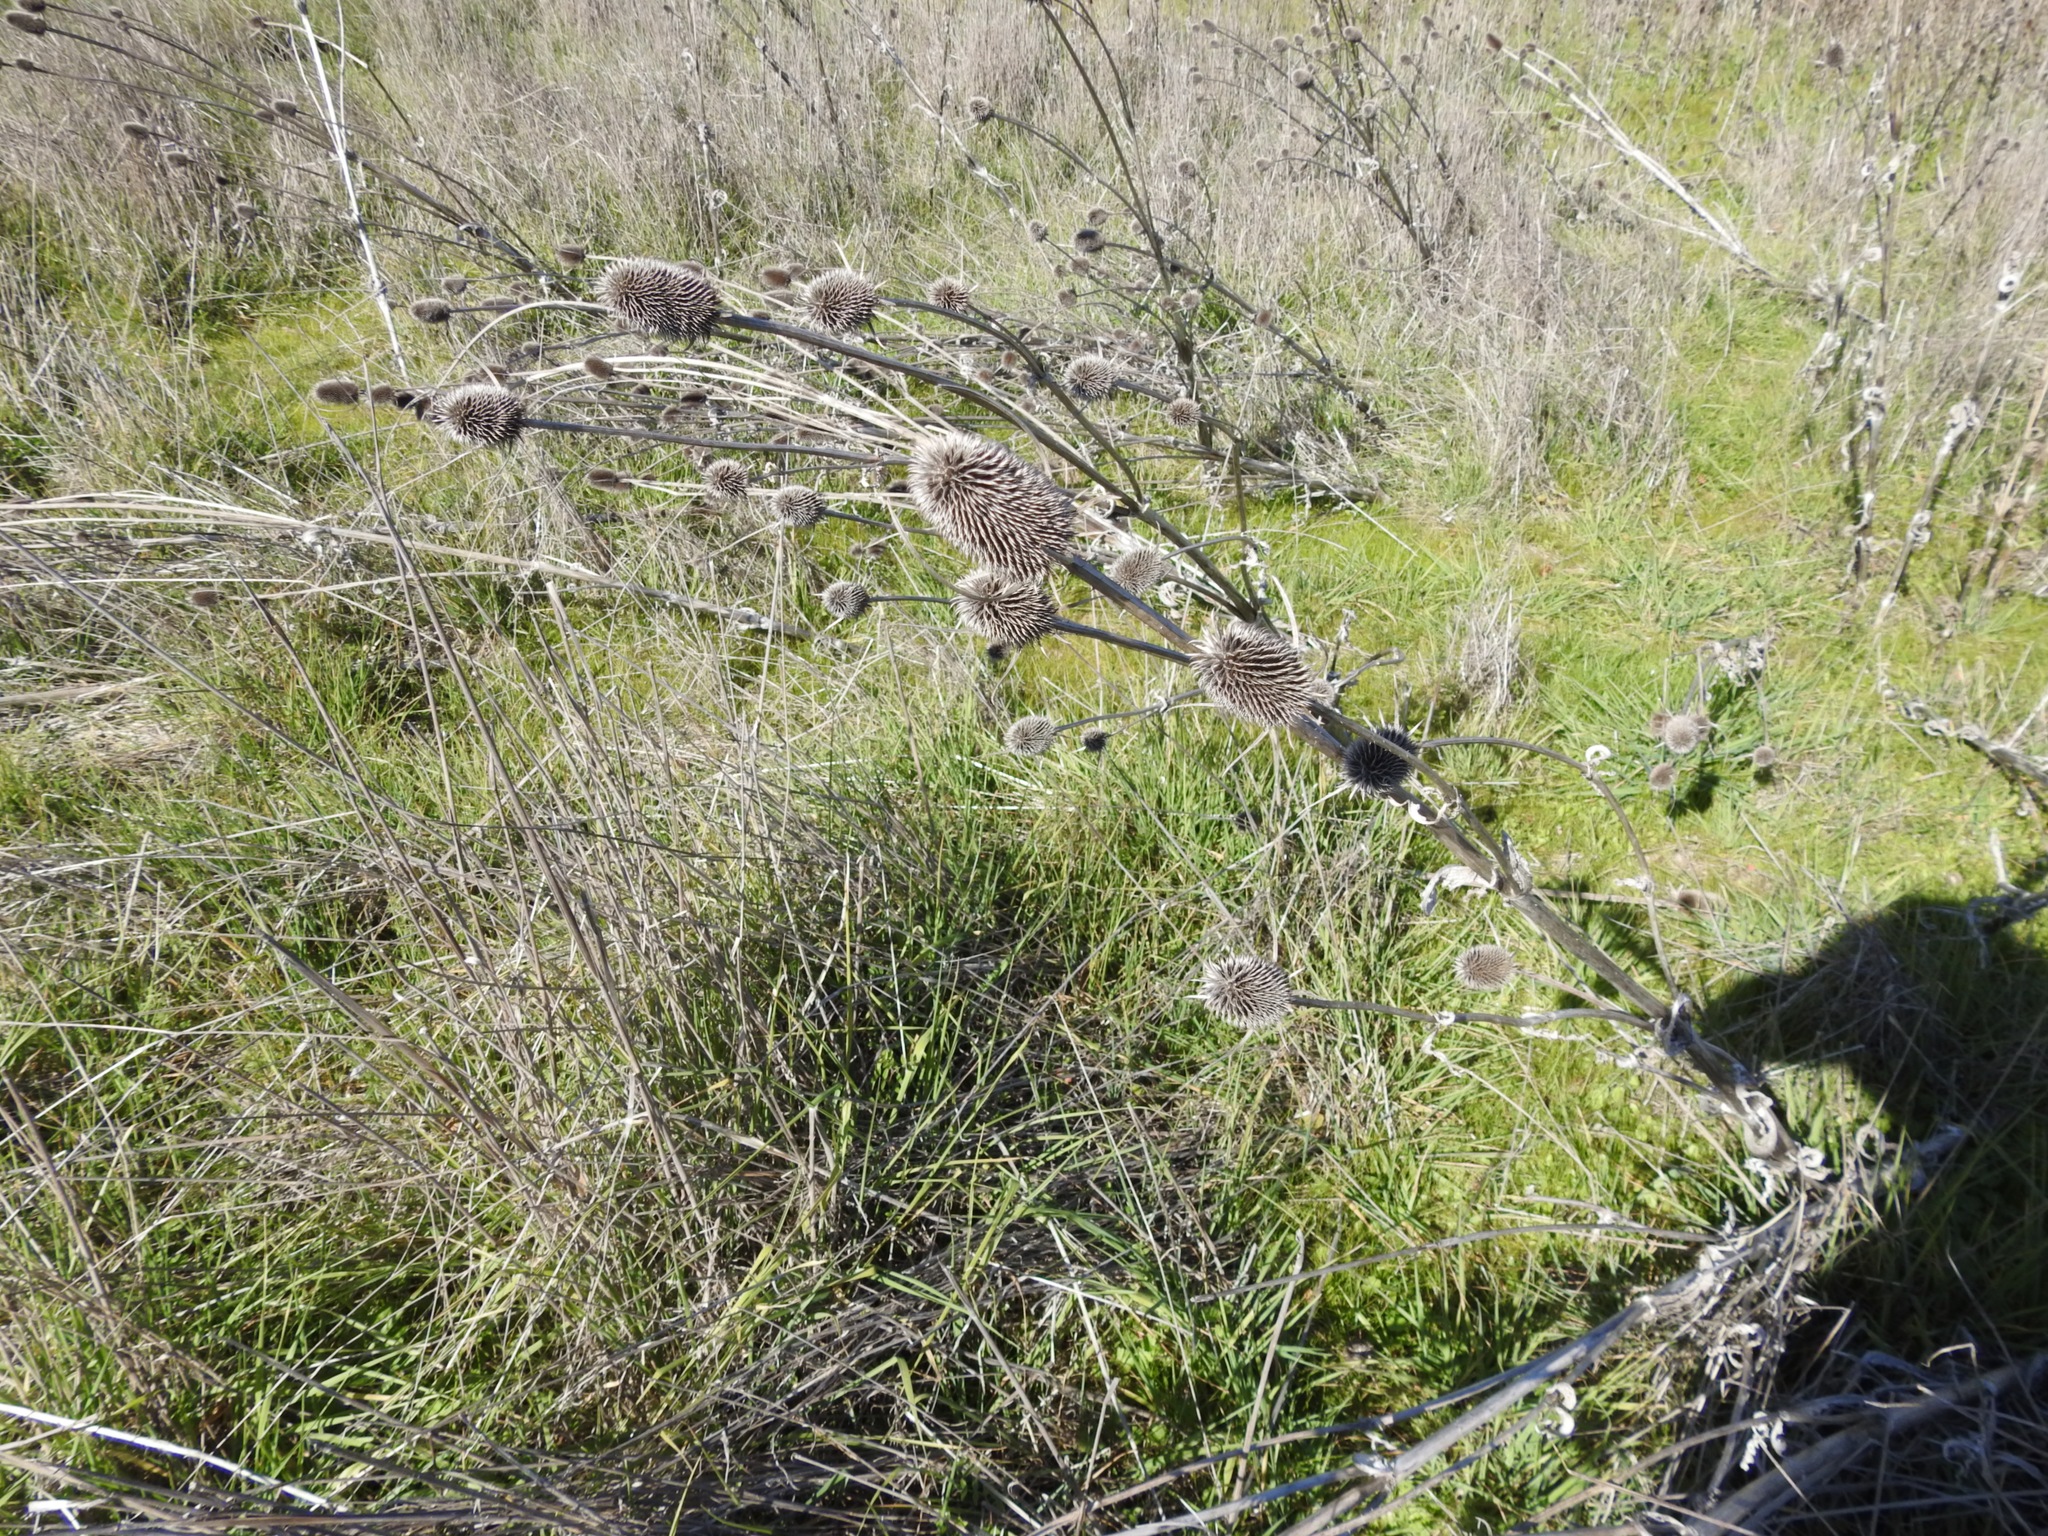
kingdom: Plantae
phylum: Tracheophyta
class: Magnoliopsida
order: Dipsacales
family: Caprifoliaceae
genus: Dipsacus
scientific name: Dipsacus sativus
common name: Fuller's teasel
